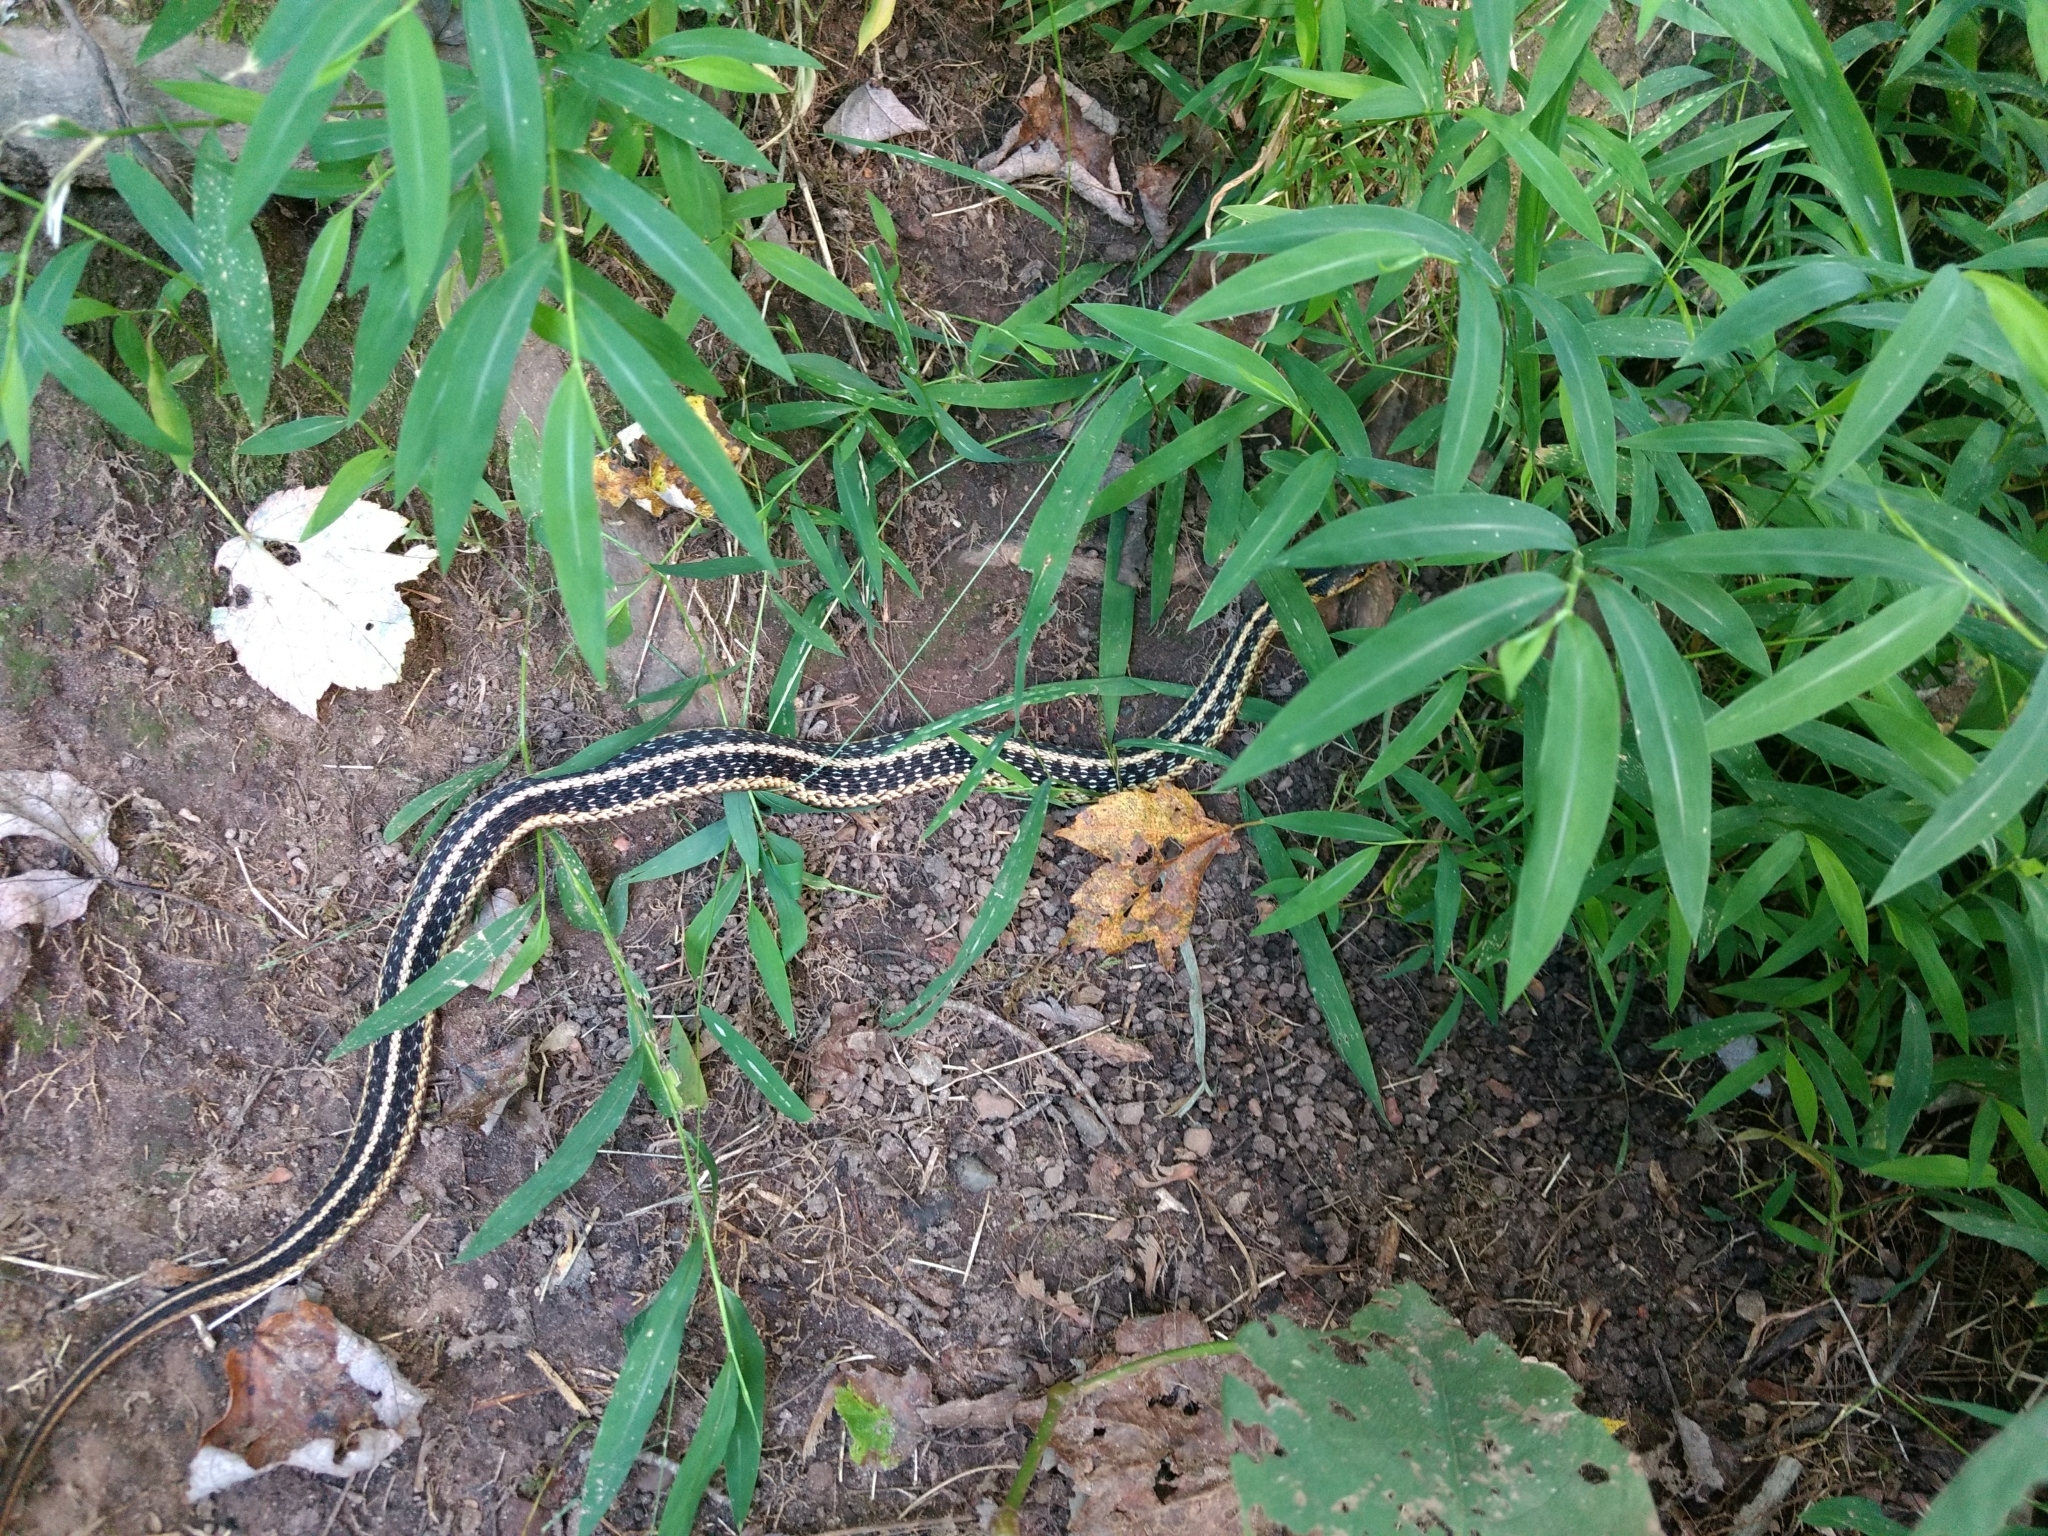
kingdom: Animalia
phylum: Chordata
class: Squamata
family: Colubridae
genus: Thamnophis
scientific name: Thamnophis sirtalis
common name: Common garter snake
